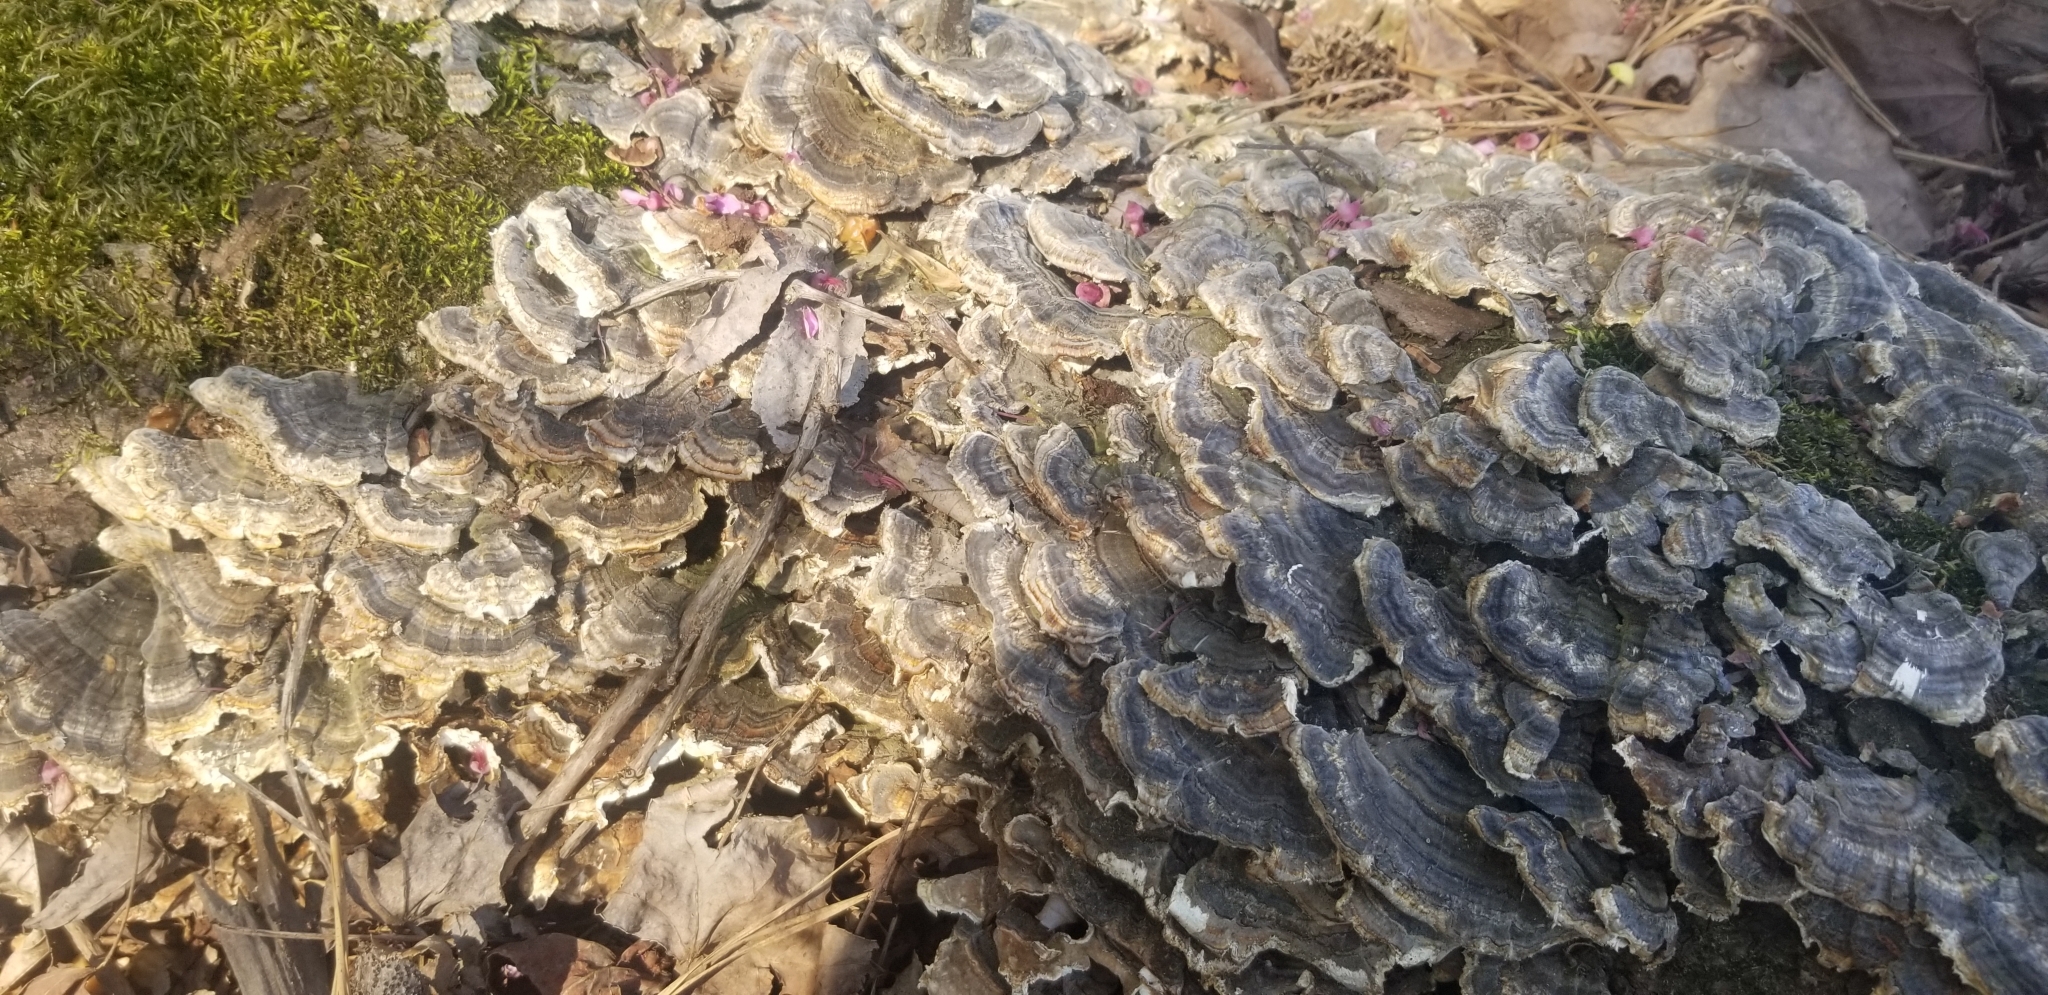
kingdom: Fungi
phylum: Basidiomycota
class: Agaricomycetes
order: Polyporales
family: Polyporaceae
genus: Trametes
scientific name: Trametes versicolor
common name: Turkeytail
